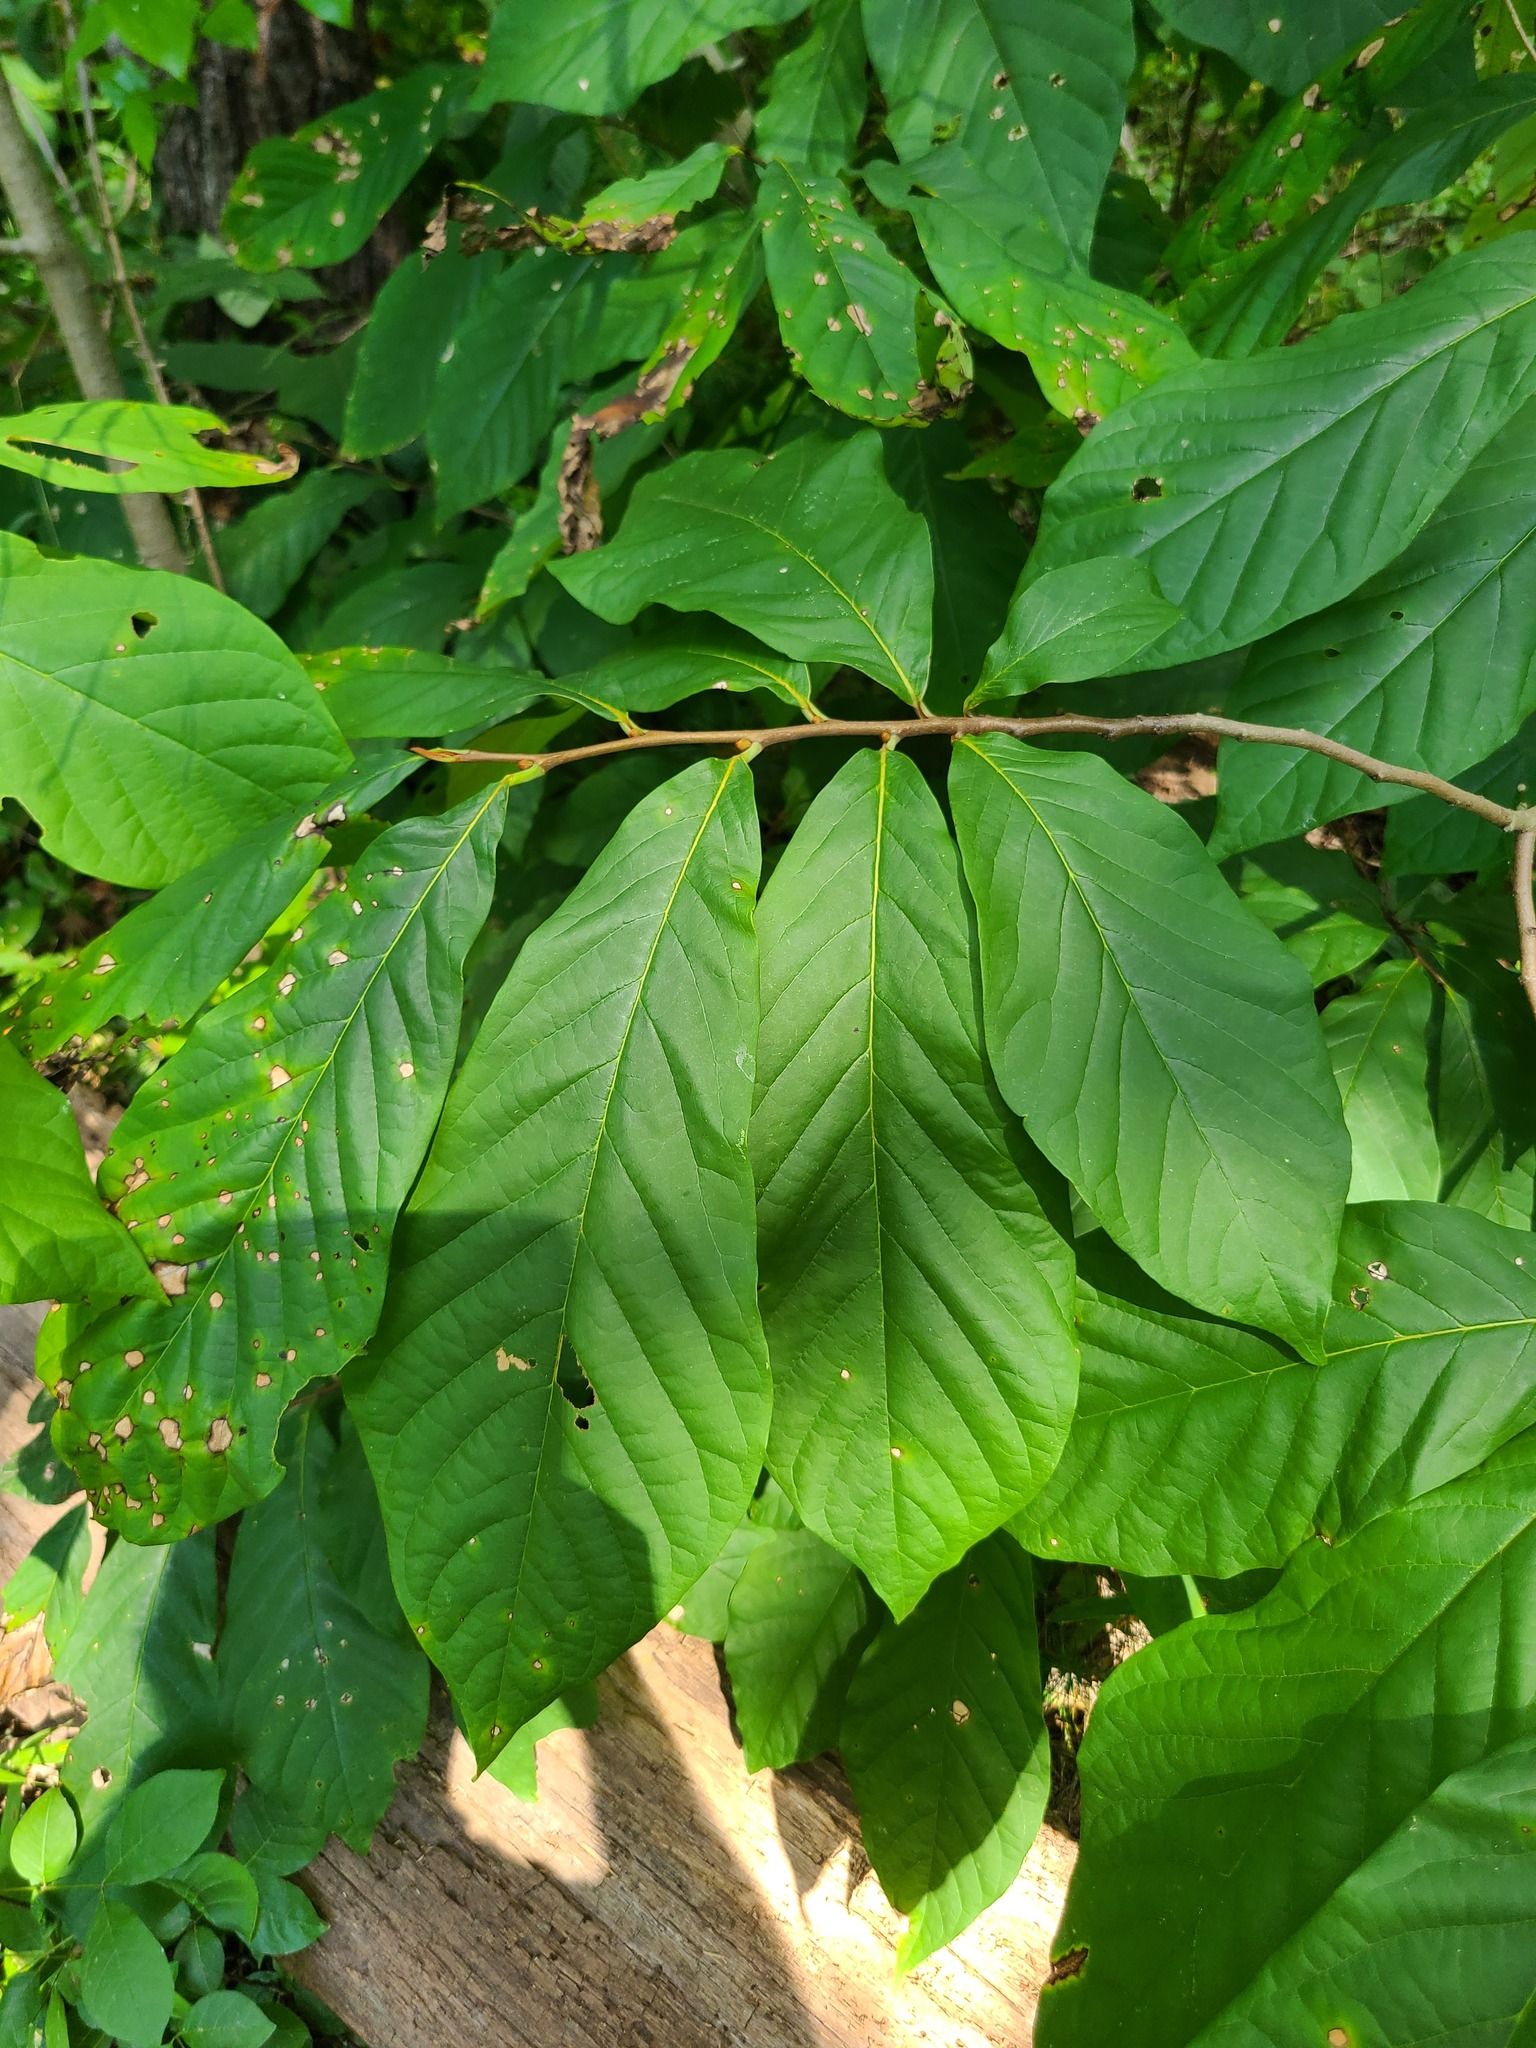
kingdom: Plantae
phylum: Tracheophyta
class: Magnoliopsida
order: Magnoliales
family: Annonaceae
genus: Asimina
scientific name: Asimina triloba
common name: Dog-banana
